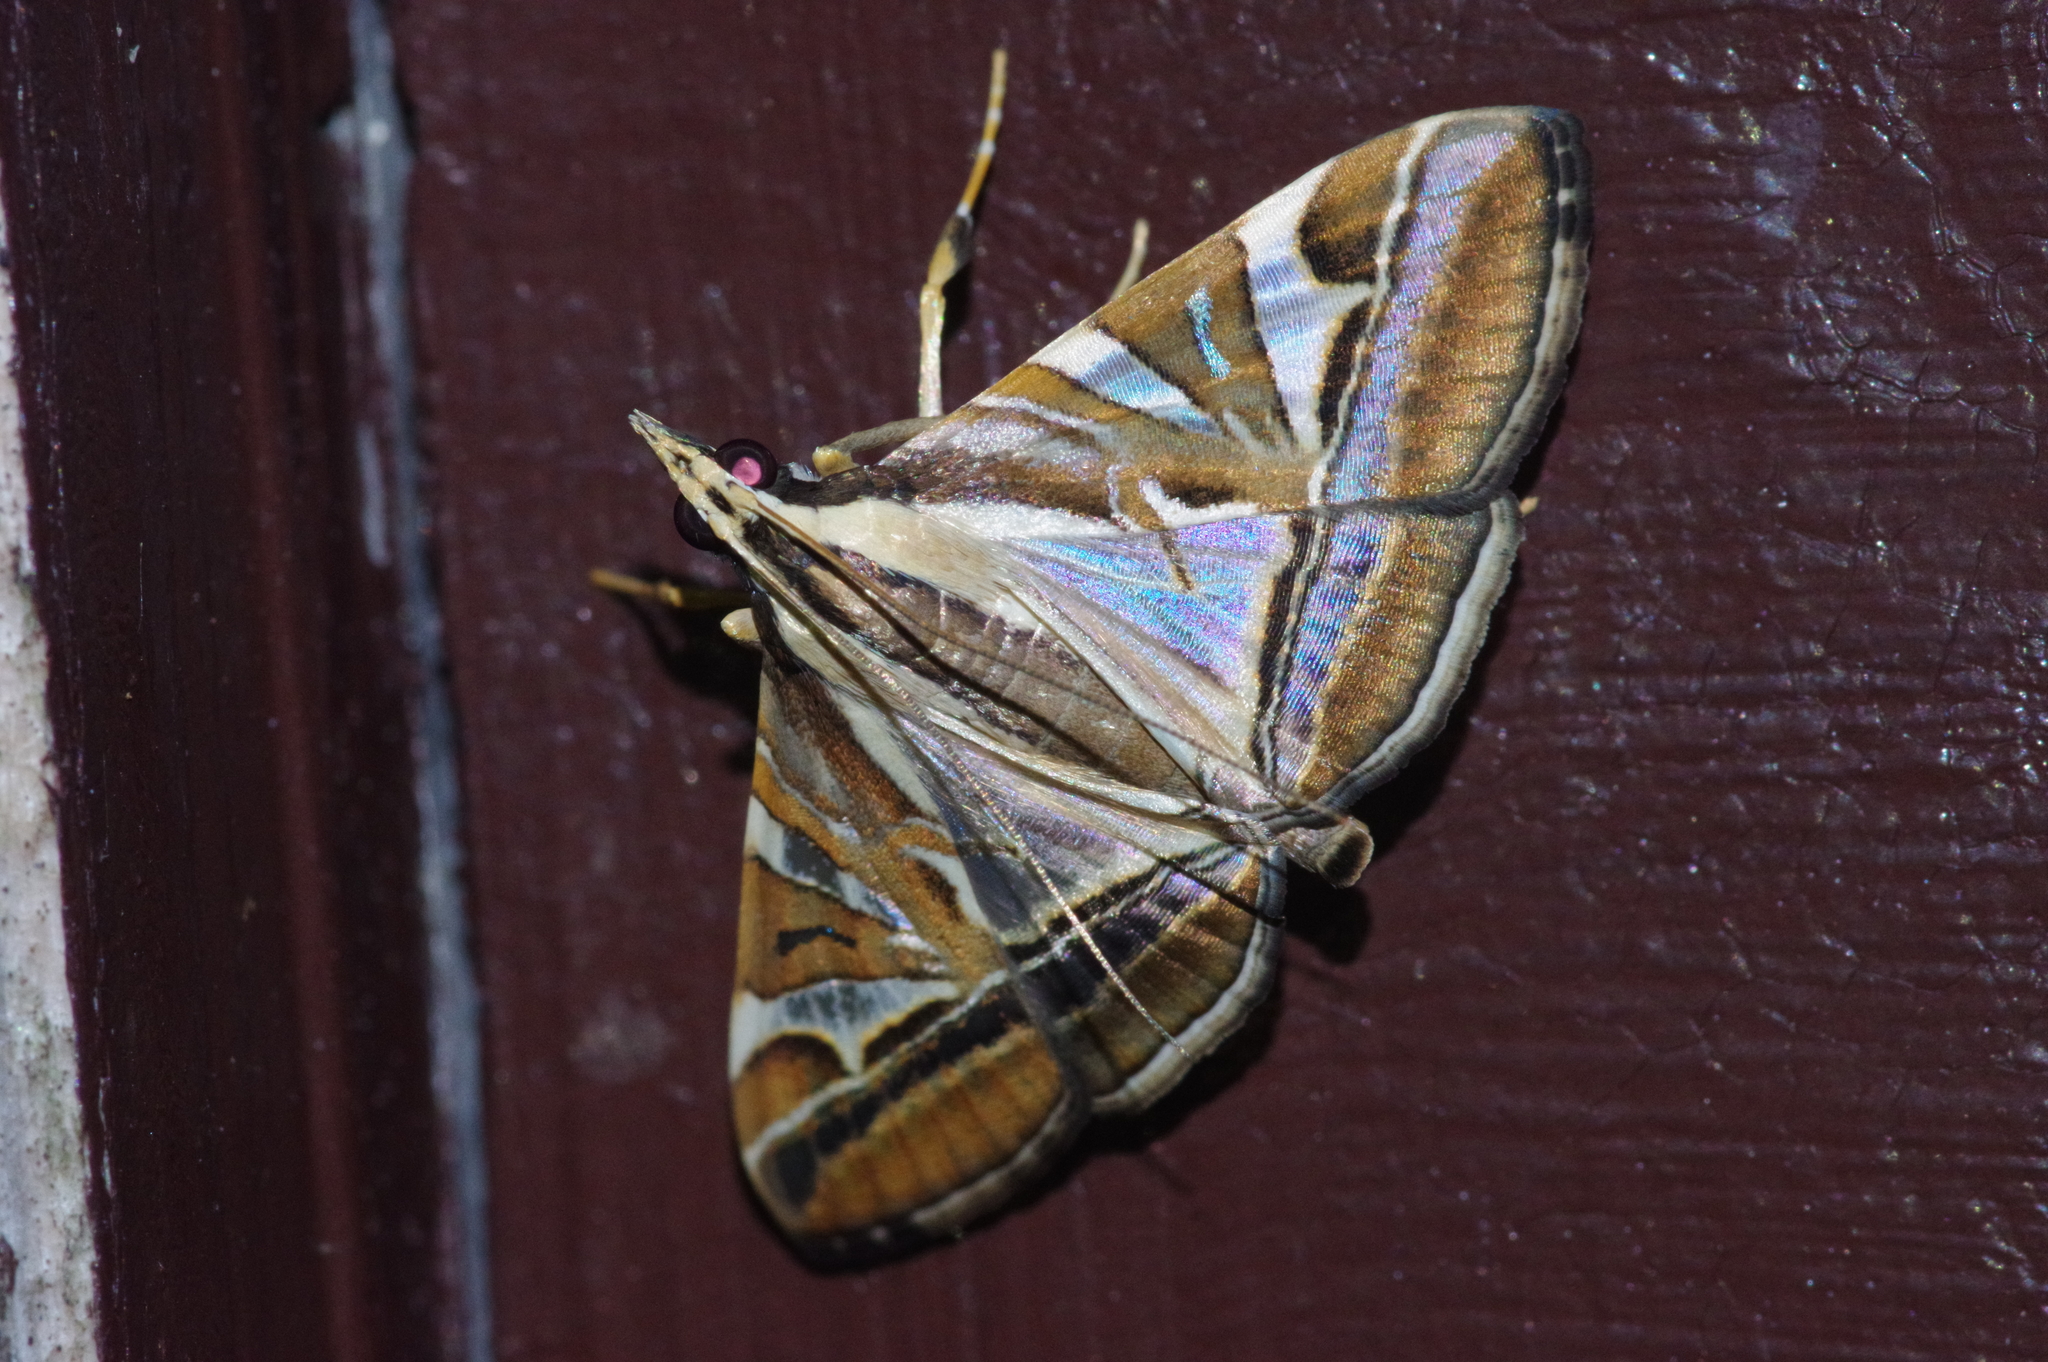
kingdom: Animalia
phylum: Arthropoda
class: Insecta
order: Lepidoptera
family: Crambidae
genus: Agrioglypta
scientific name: Agrioglypta itysalis
